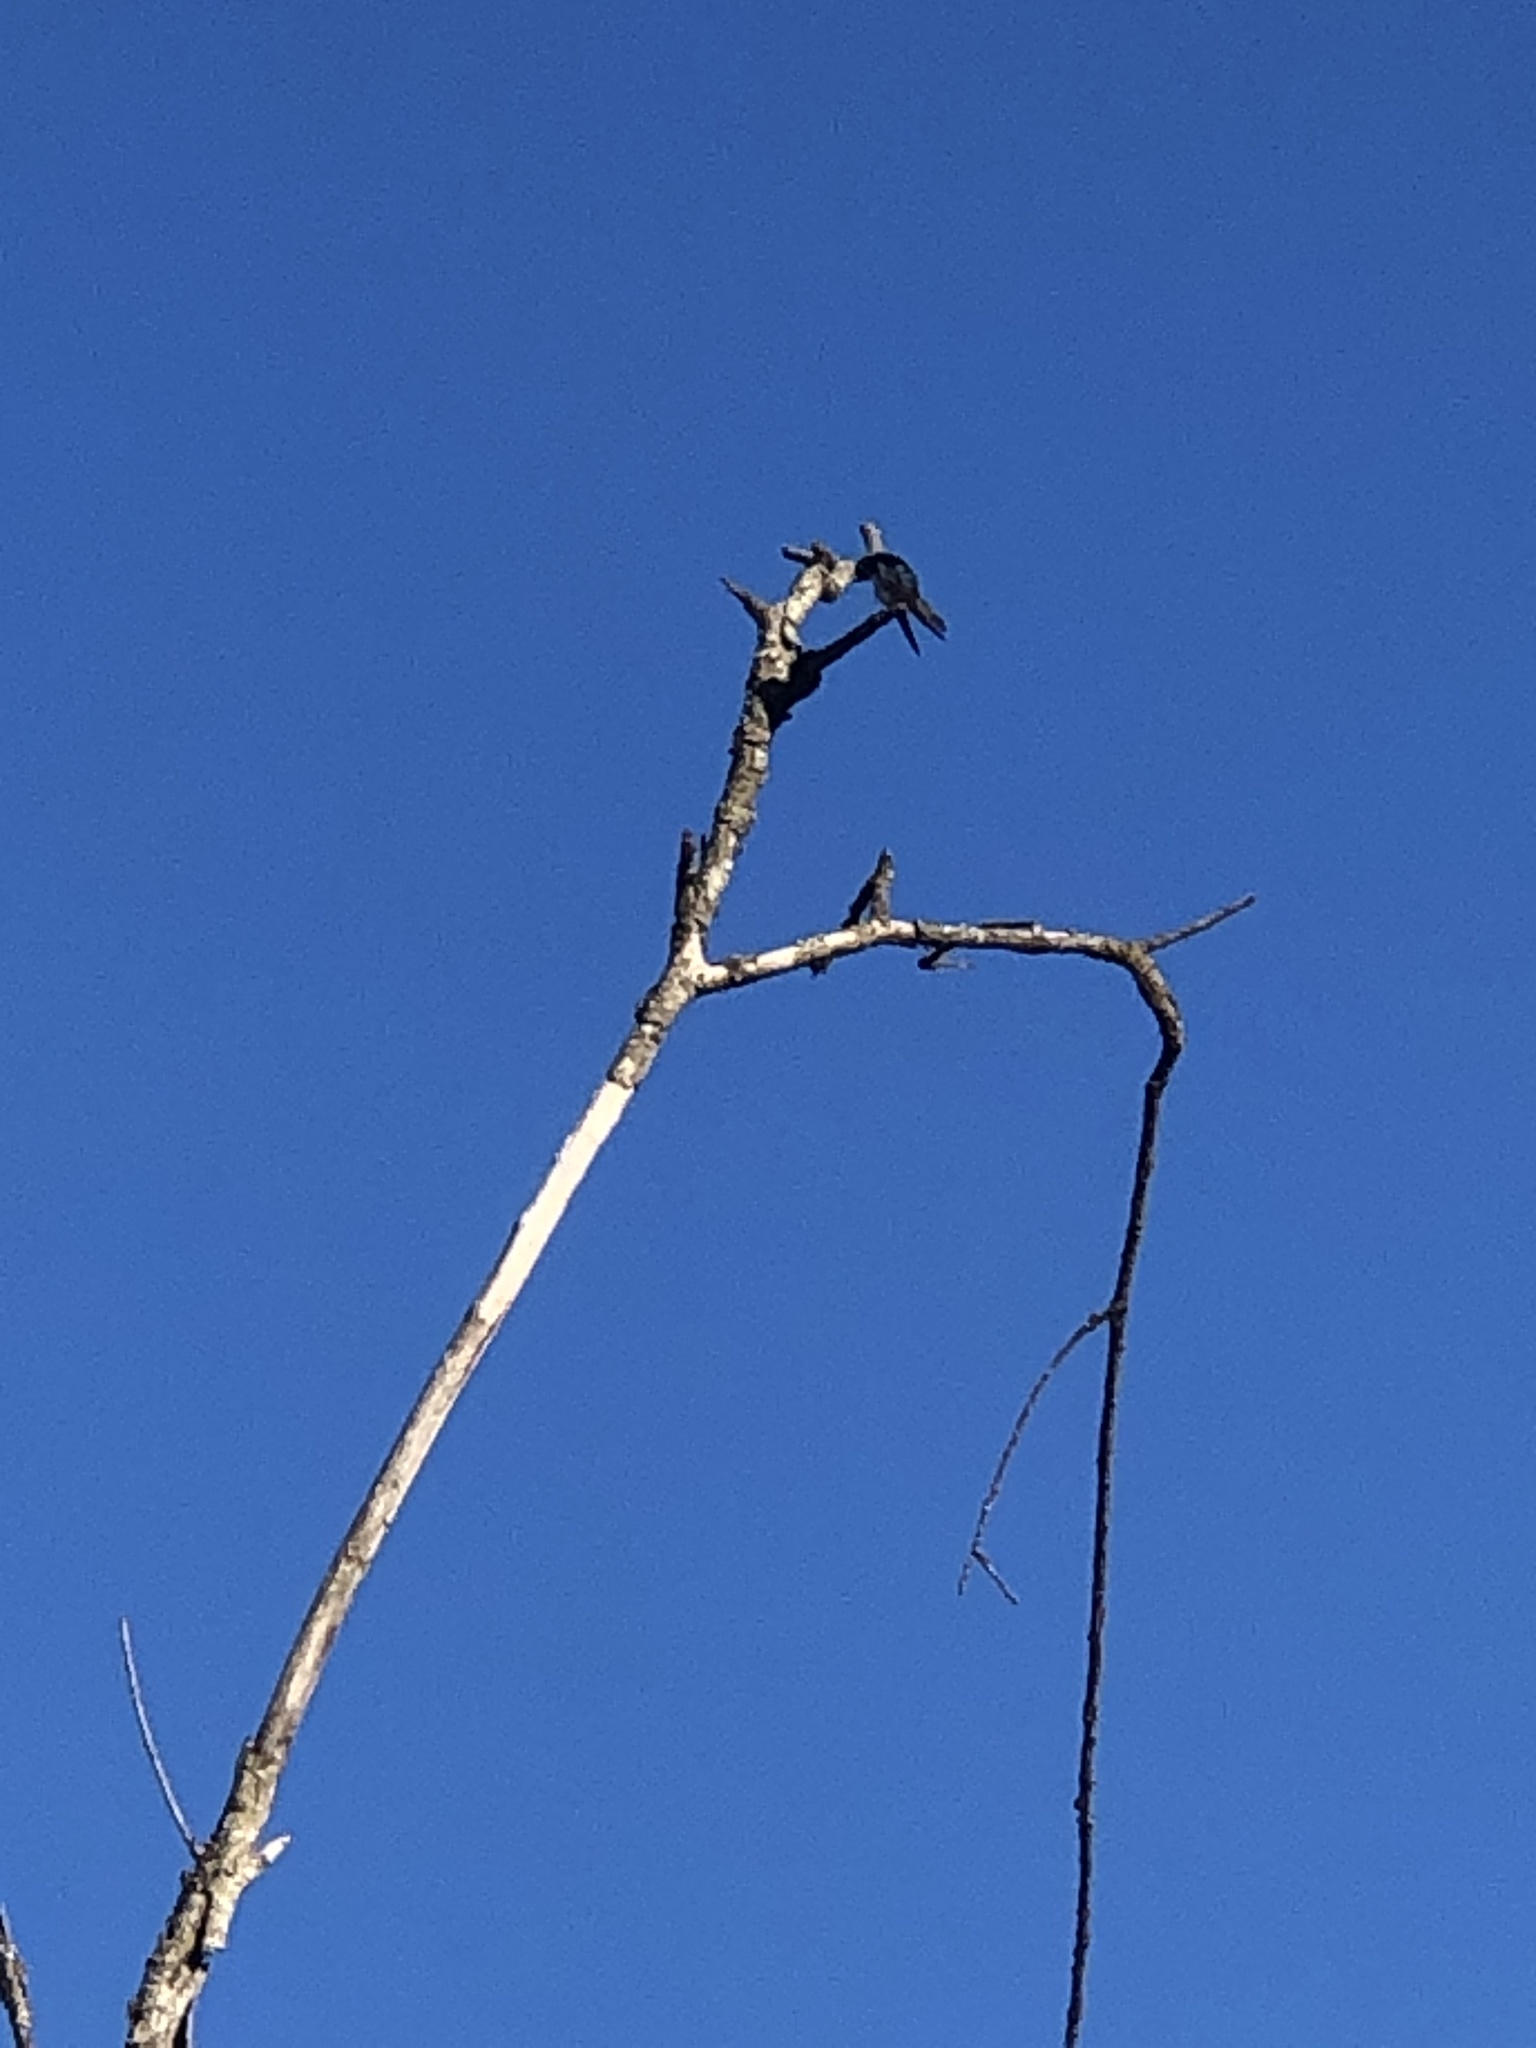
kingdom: Animalia
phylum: Chordata
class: Aves
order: Passeriformes
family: Hirundinidae
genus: Tachycineta
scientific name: Tachycineta bicolor
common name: Tree swallow
